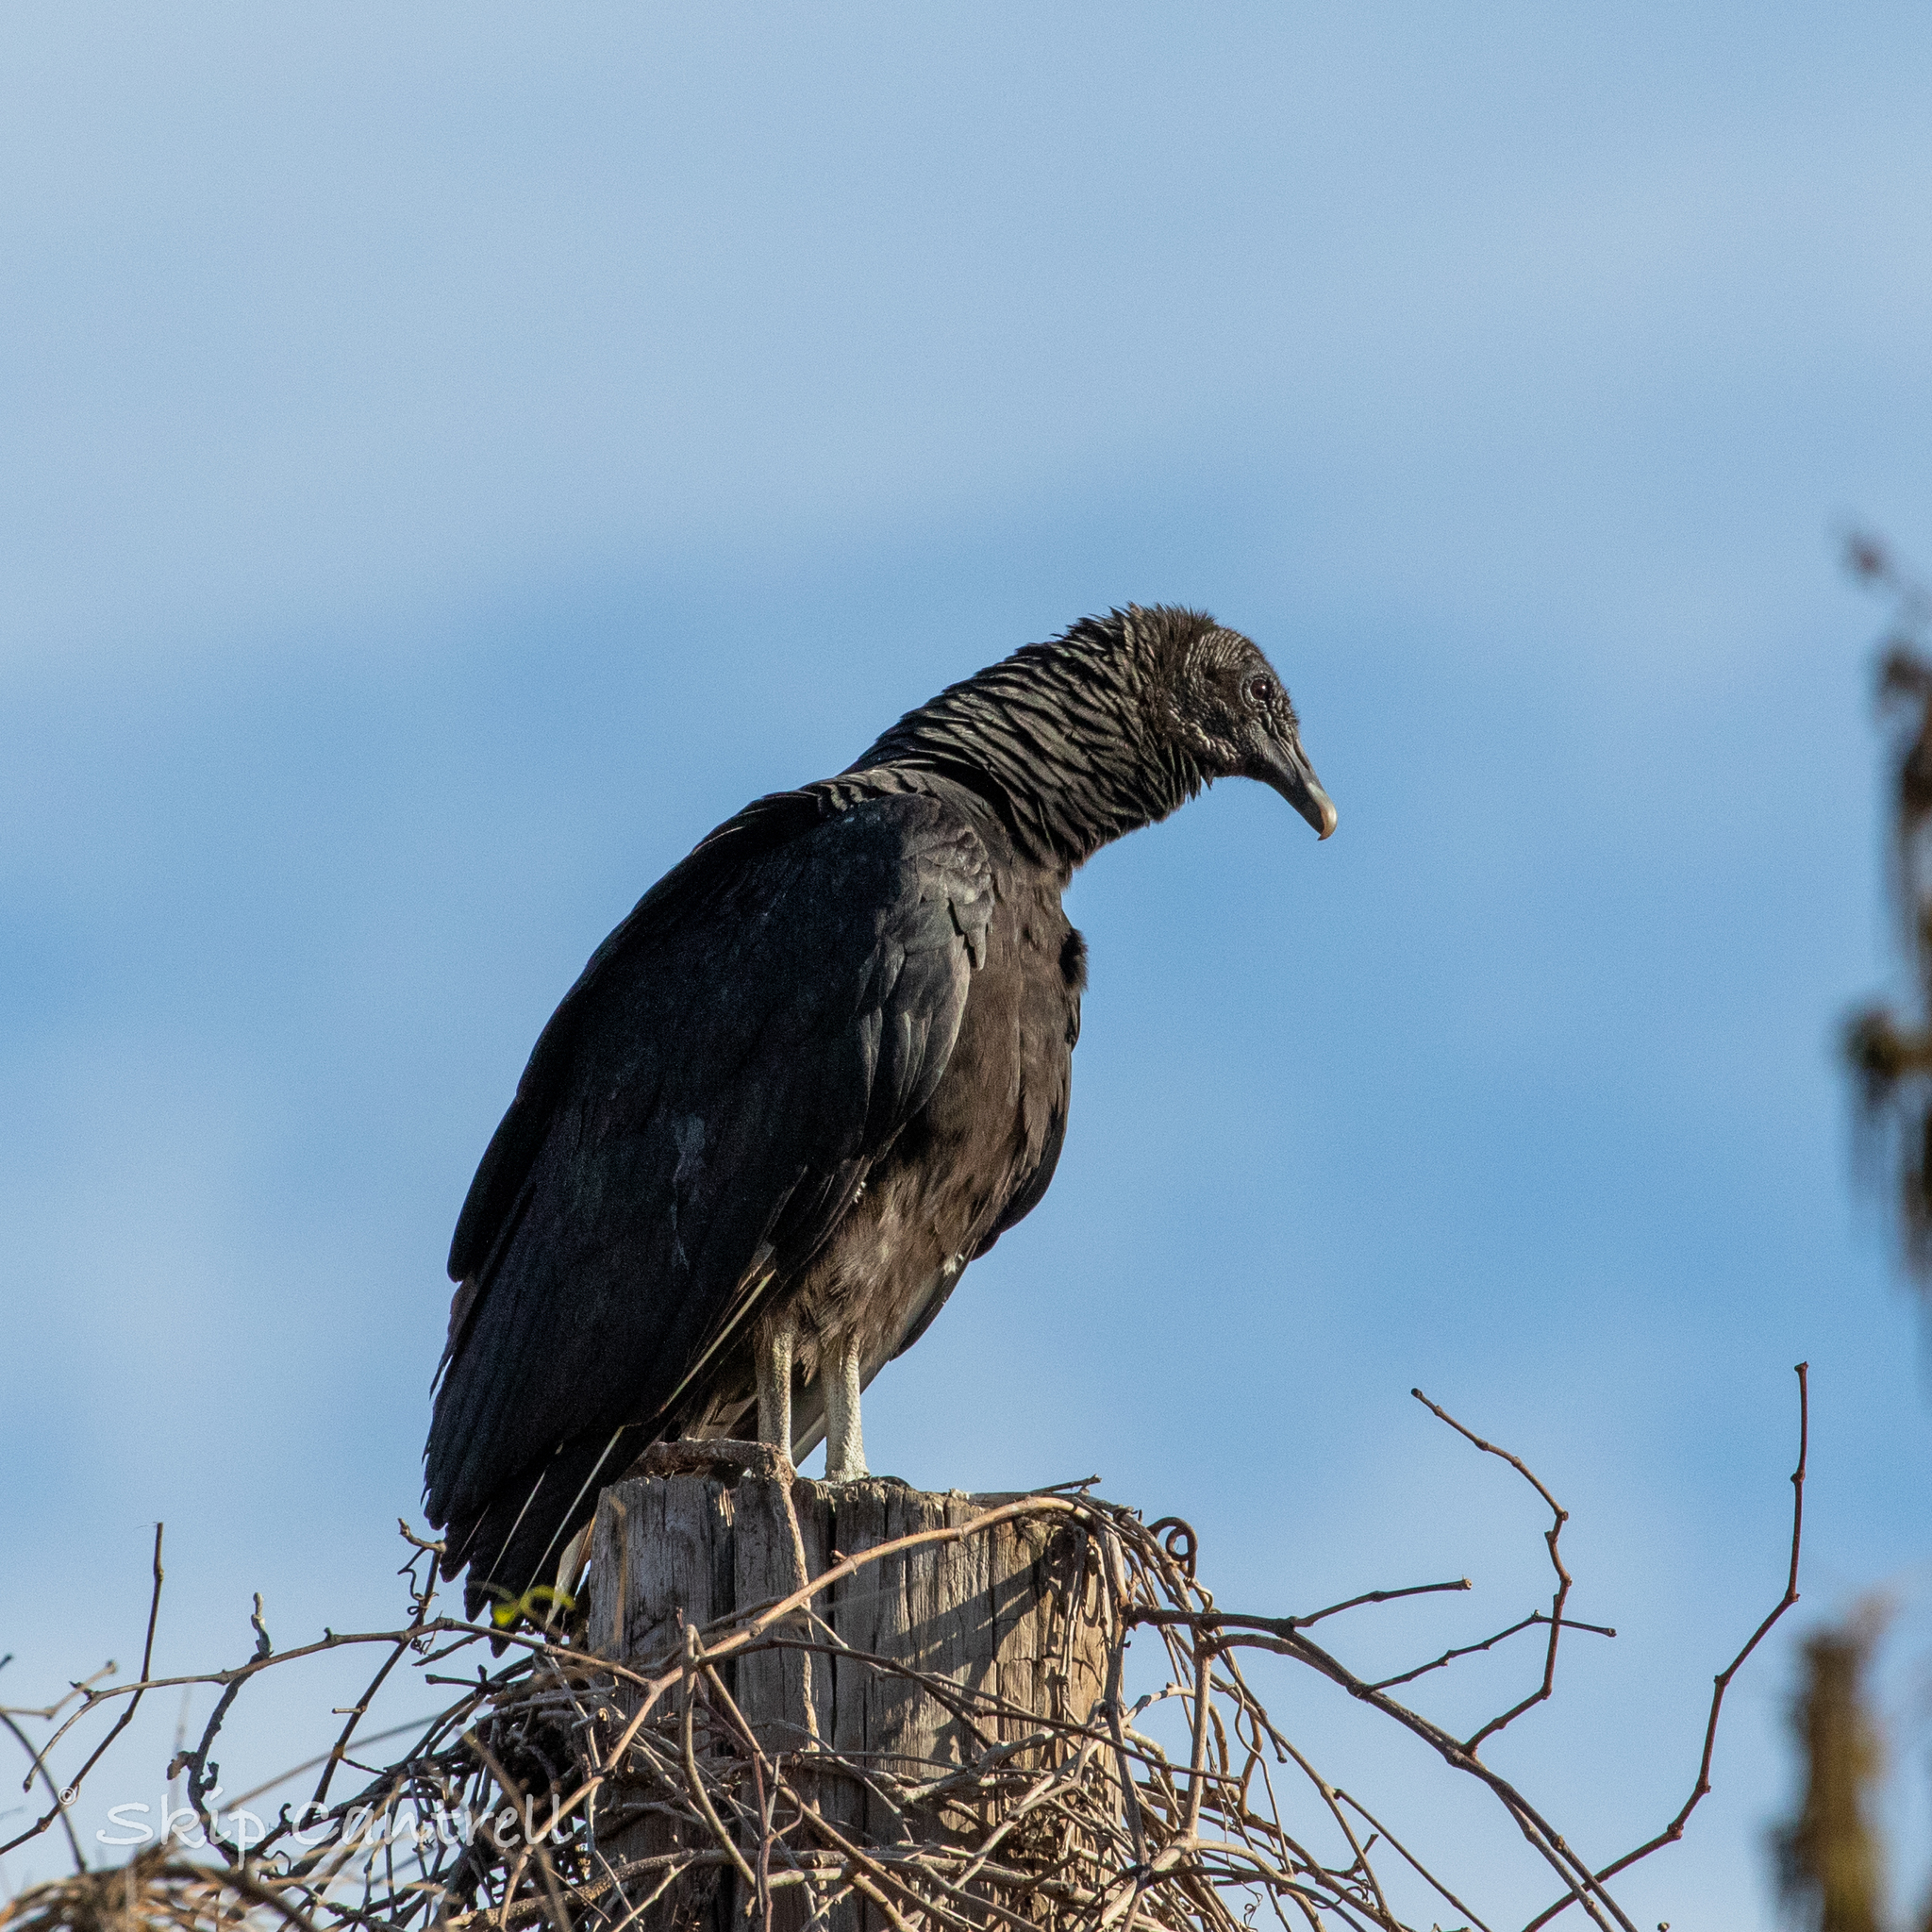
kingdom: Animalia
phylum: Chordata
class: Aves
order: Accipitriformes
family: Cathartidae
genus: Coragyps
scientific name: Coragyps atratus
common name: Black vulture
